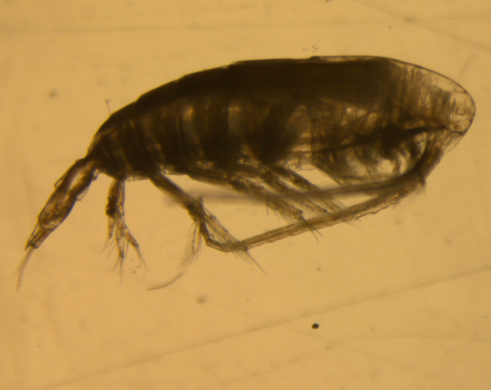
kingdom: Animalia
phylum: Arthropoda
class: Copepoda
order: Calanoida
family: Calanidae
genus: Calanus
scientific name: Calanus hyperboreus
